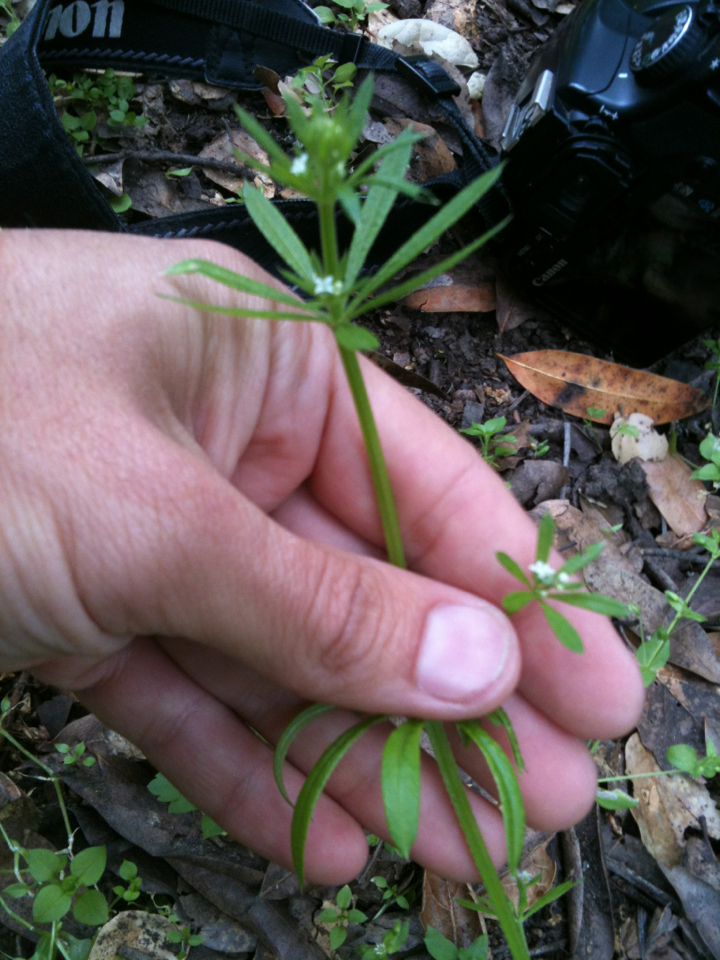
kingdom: Plantae
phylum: Tracheophyta
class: Magnoliopsida
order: Gentianales
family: Rubiaceae
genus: Galium
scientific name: Galium aparine
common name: Cleavers
